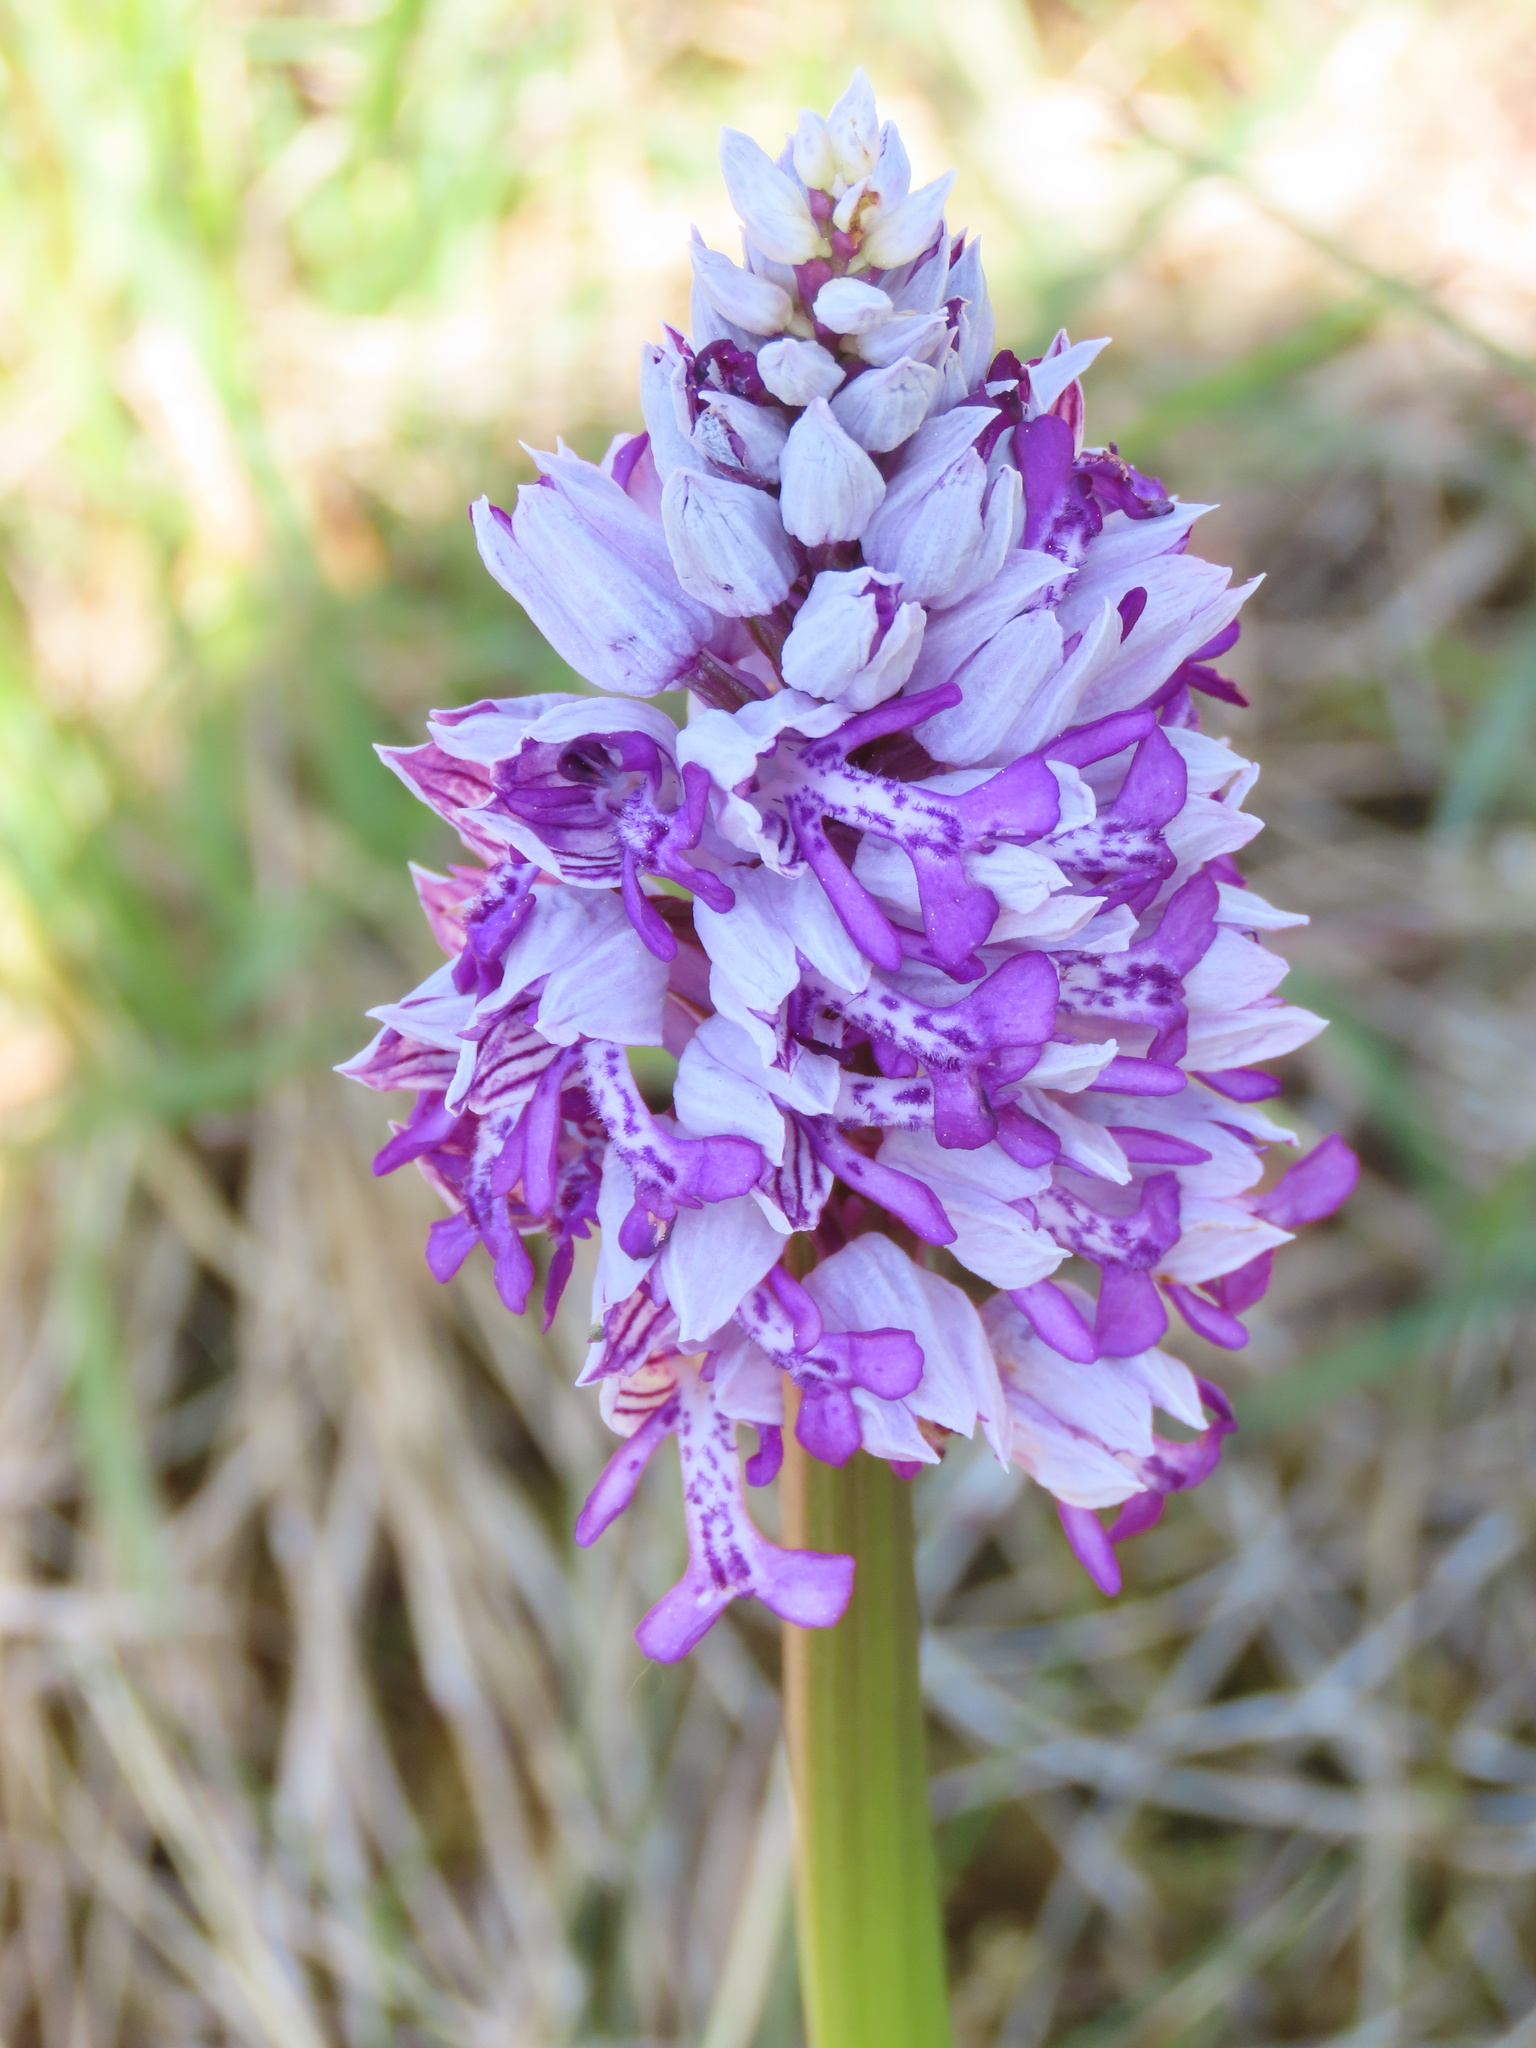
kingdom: Plantae
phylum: Tracheophyta
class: Liliopsida
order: Asparagales
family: Orchidaceae
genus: Orchis
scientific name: Orchis militaris
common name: Military orchid
